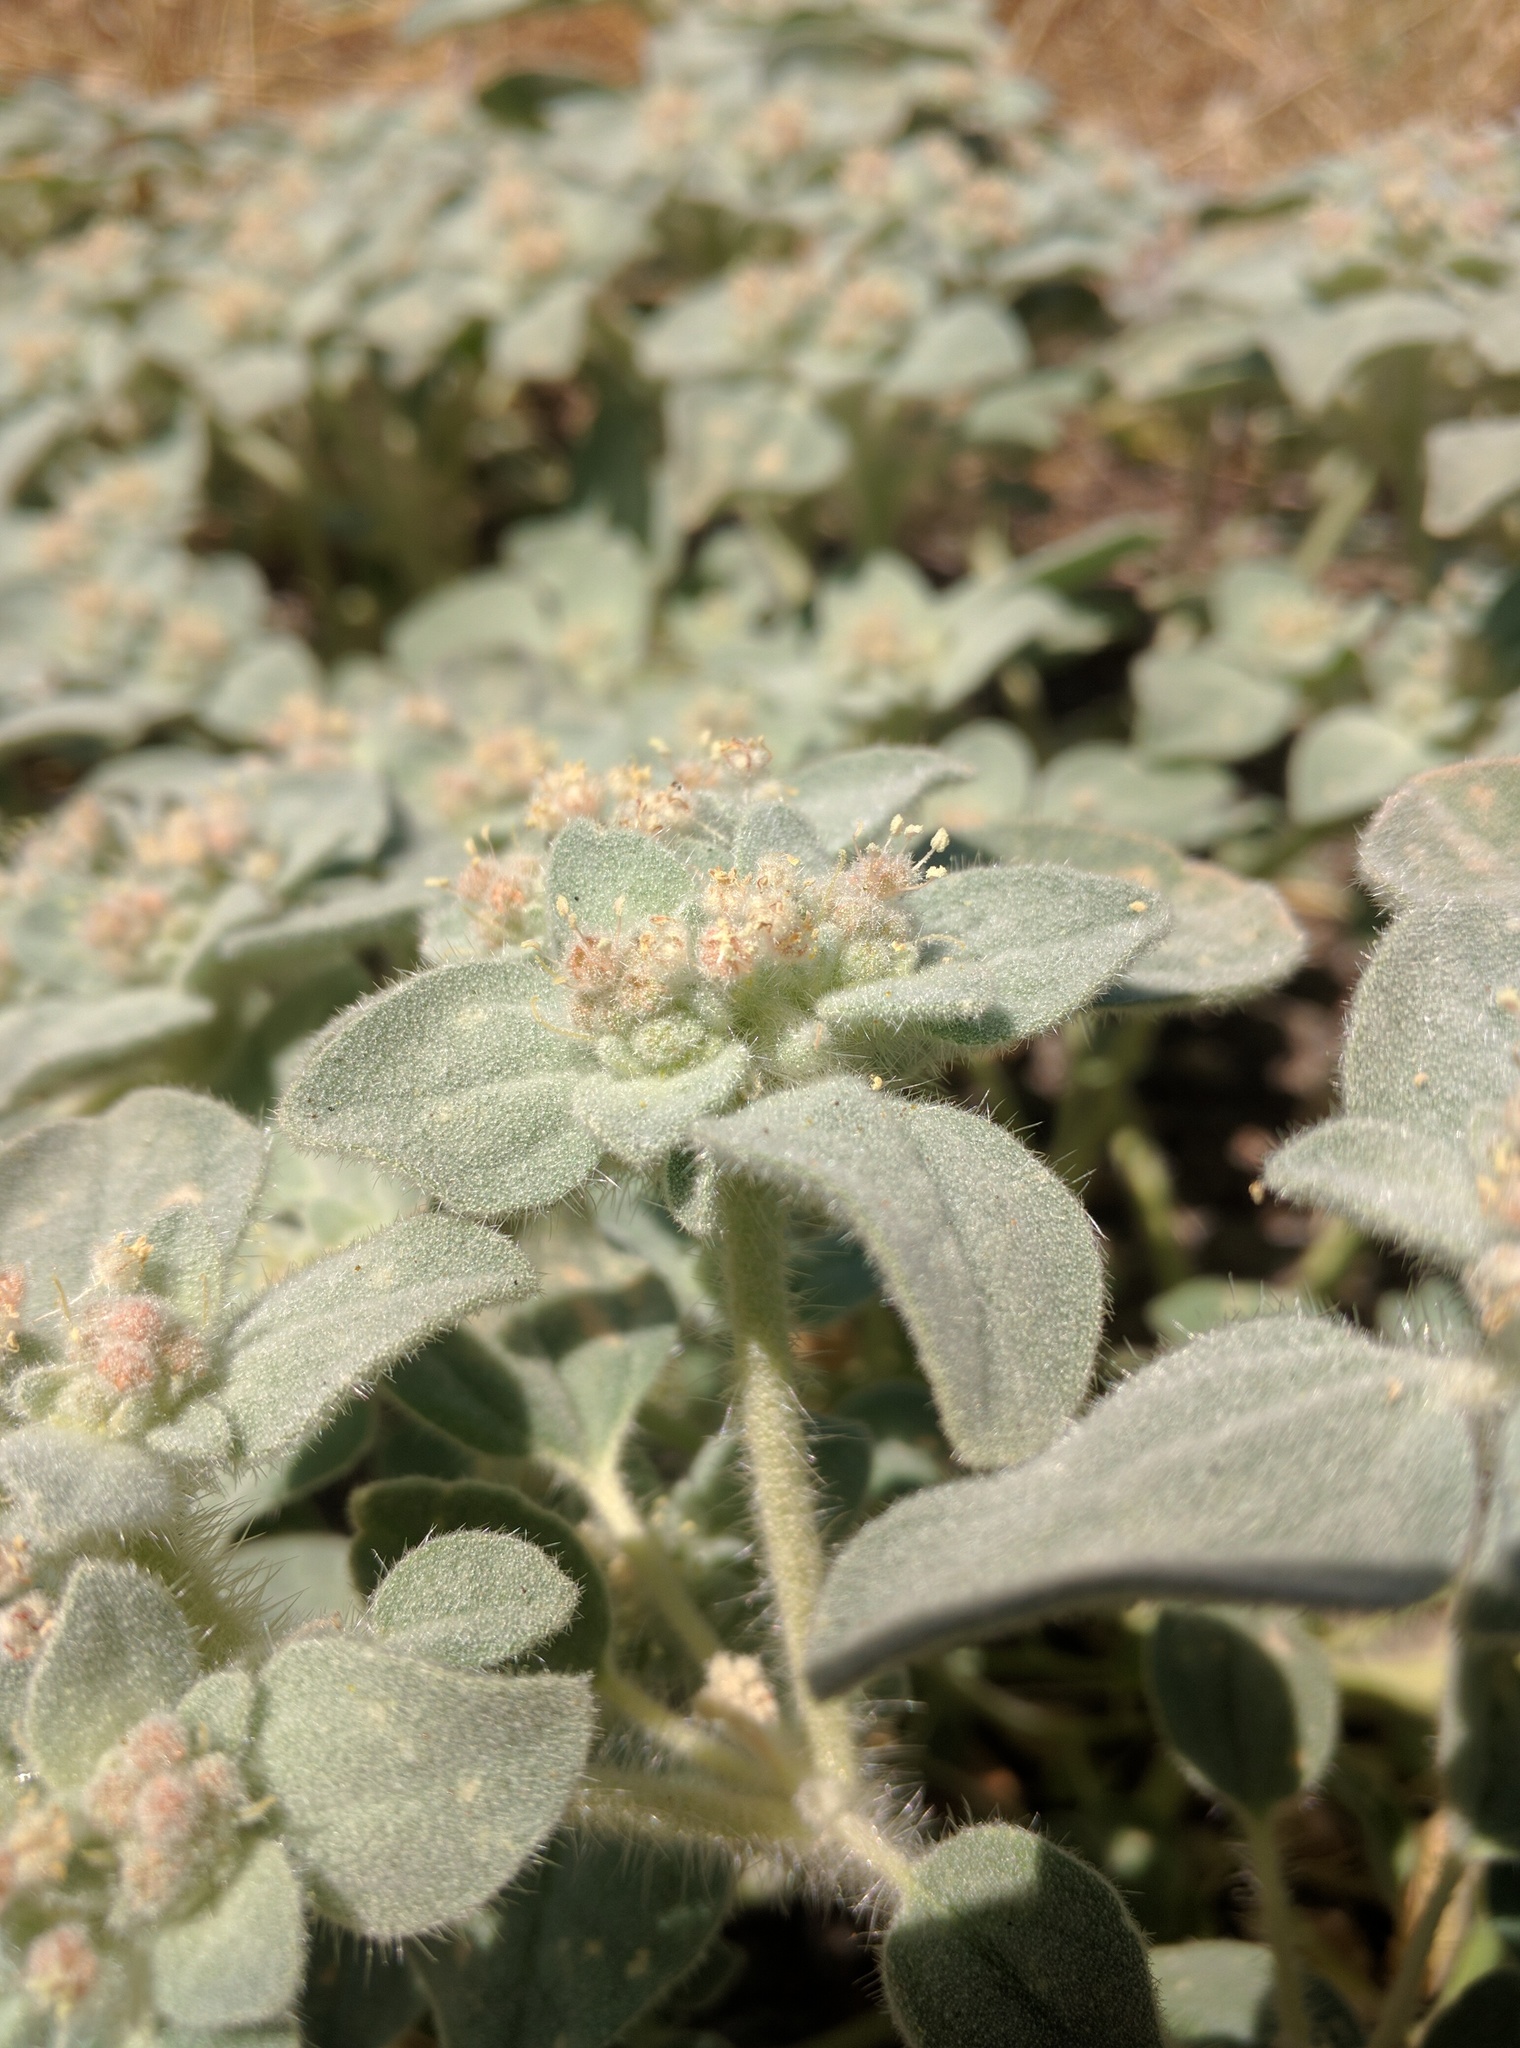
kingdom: Plantae
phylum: Tracheophyta
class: Magnoliopsida
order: Malpighiales
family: Euphorbiaceae
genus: Croton
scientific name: Croton setiger
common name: Dove weed
